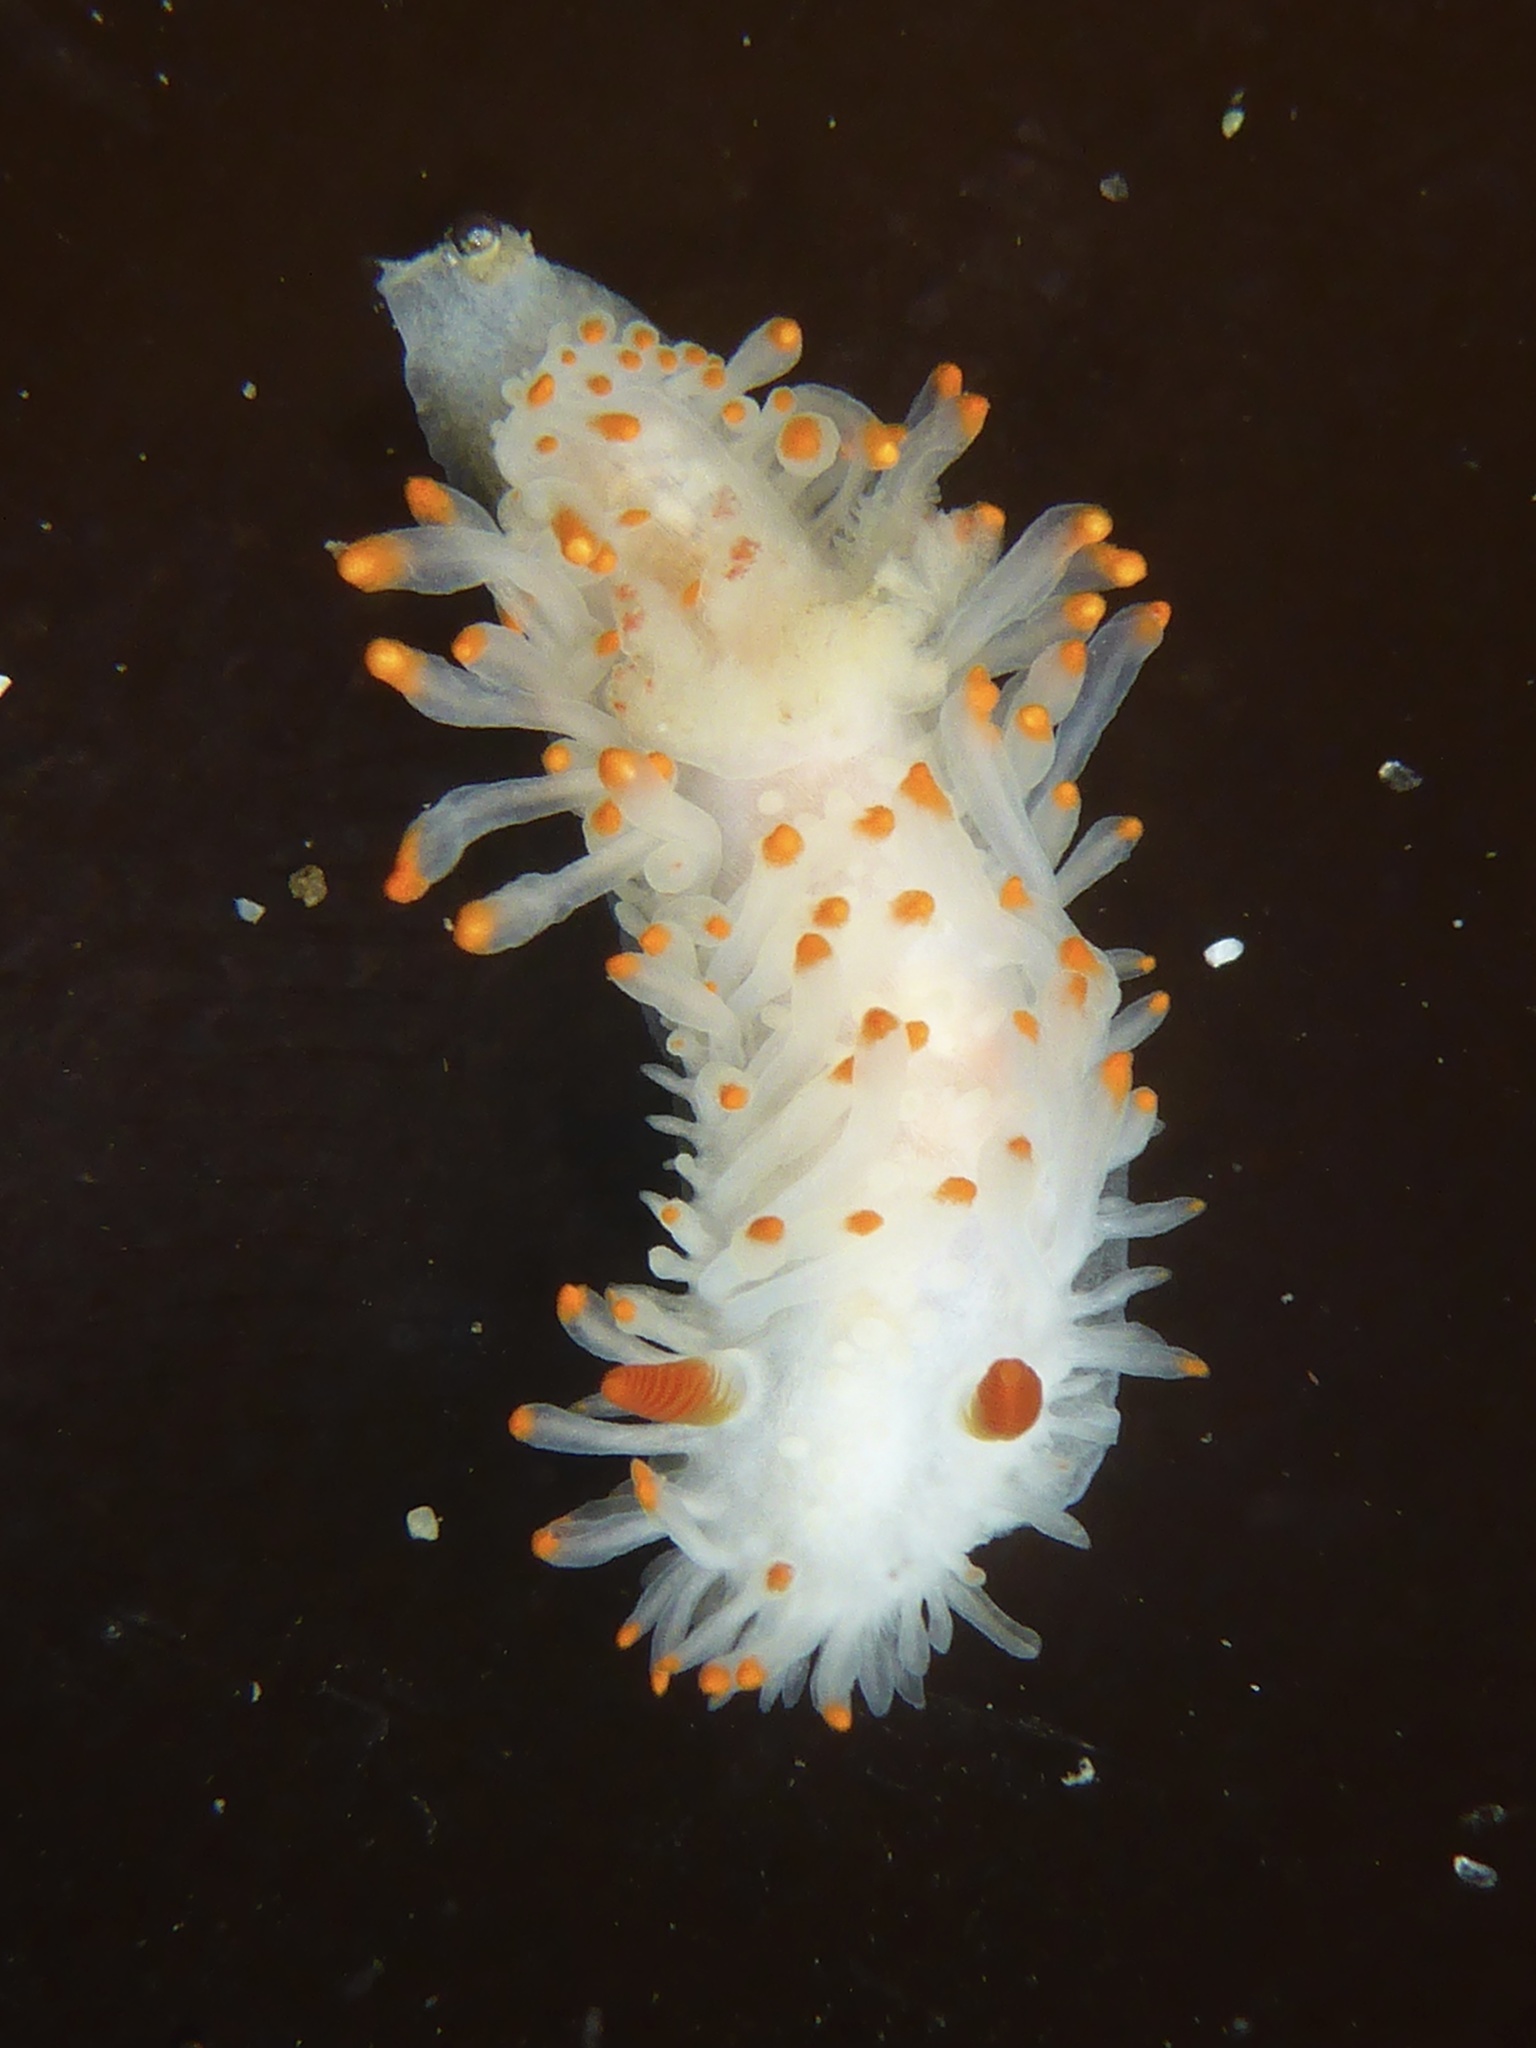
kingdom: Animalia
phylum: Mollusca
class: Gastropoda
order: Nudibranchia
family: Polyceridae
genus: Limacia
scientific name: Limacia cockerelli
